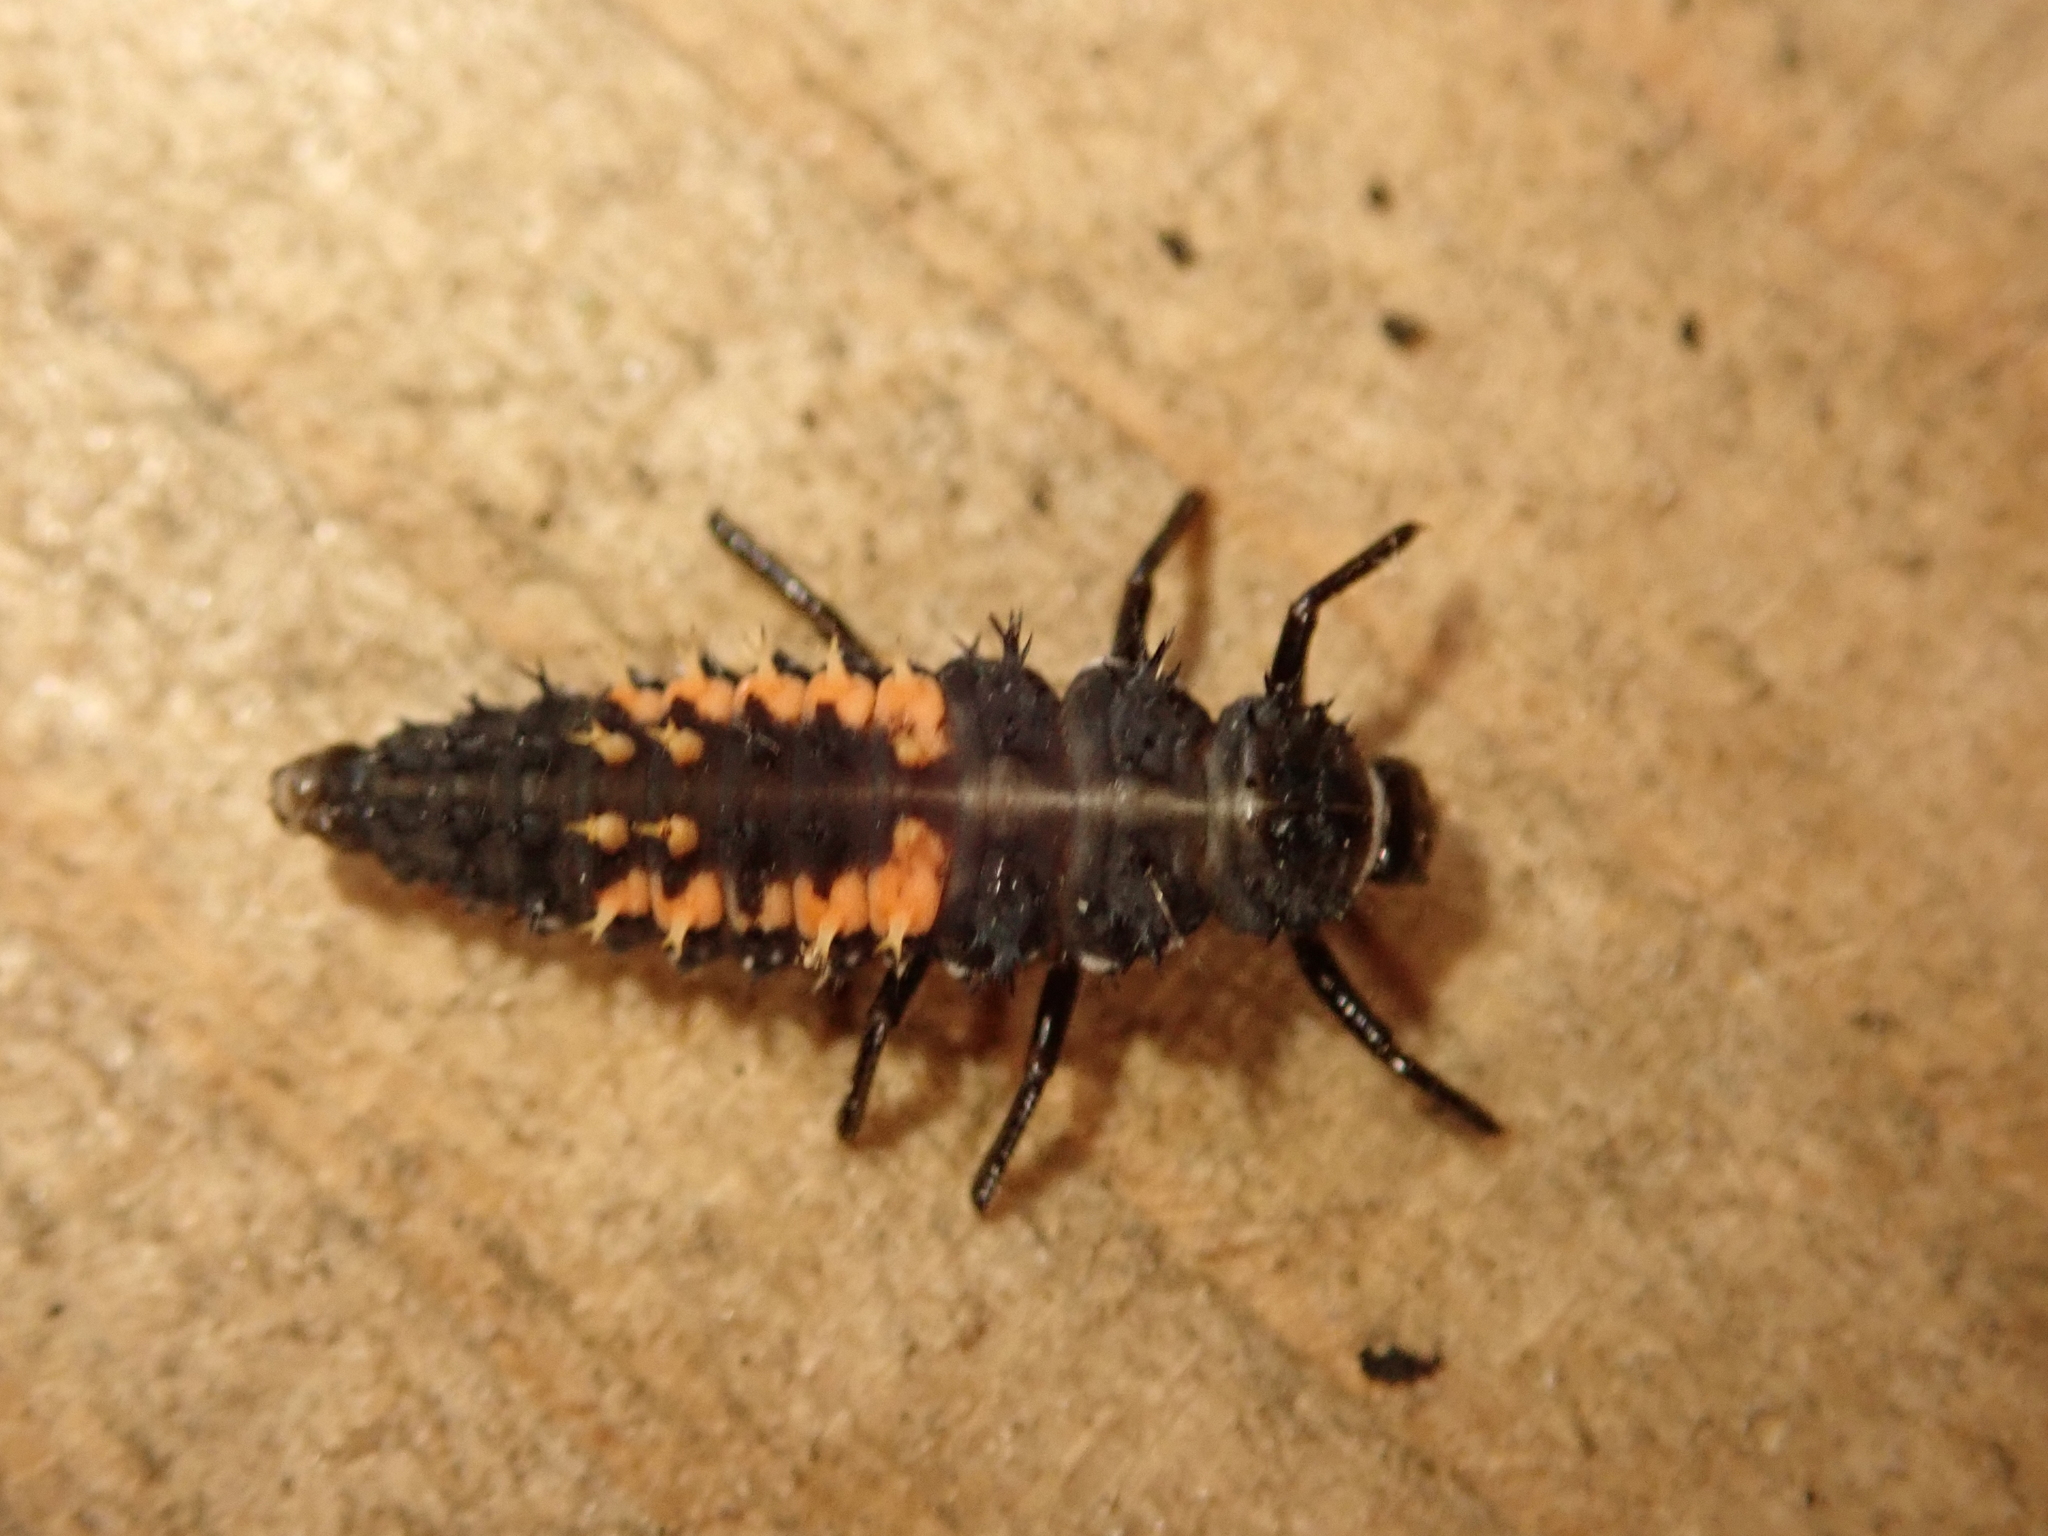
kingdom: Animalia
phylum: Arthropoda
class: Insecta
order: Coleoptera
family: Coccinellidae
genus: Harmonia
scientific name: Harmonia axyridis
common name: Harlequin ladybird
